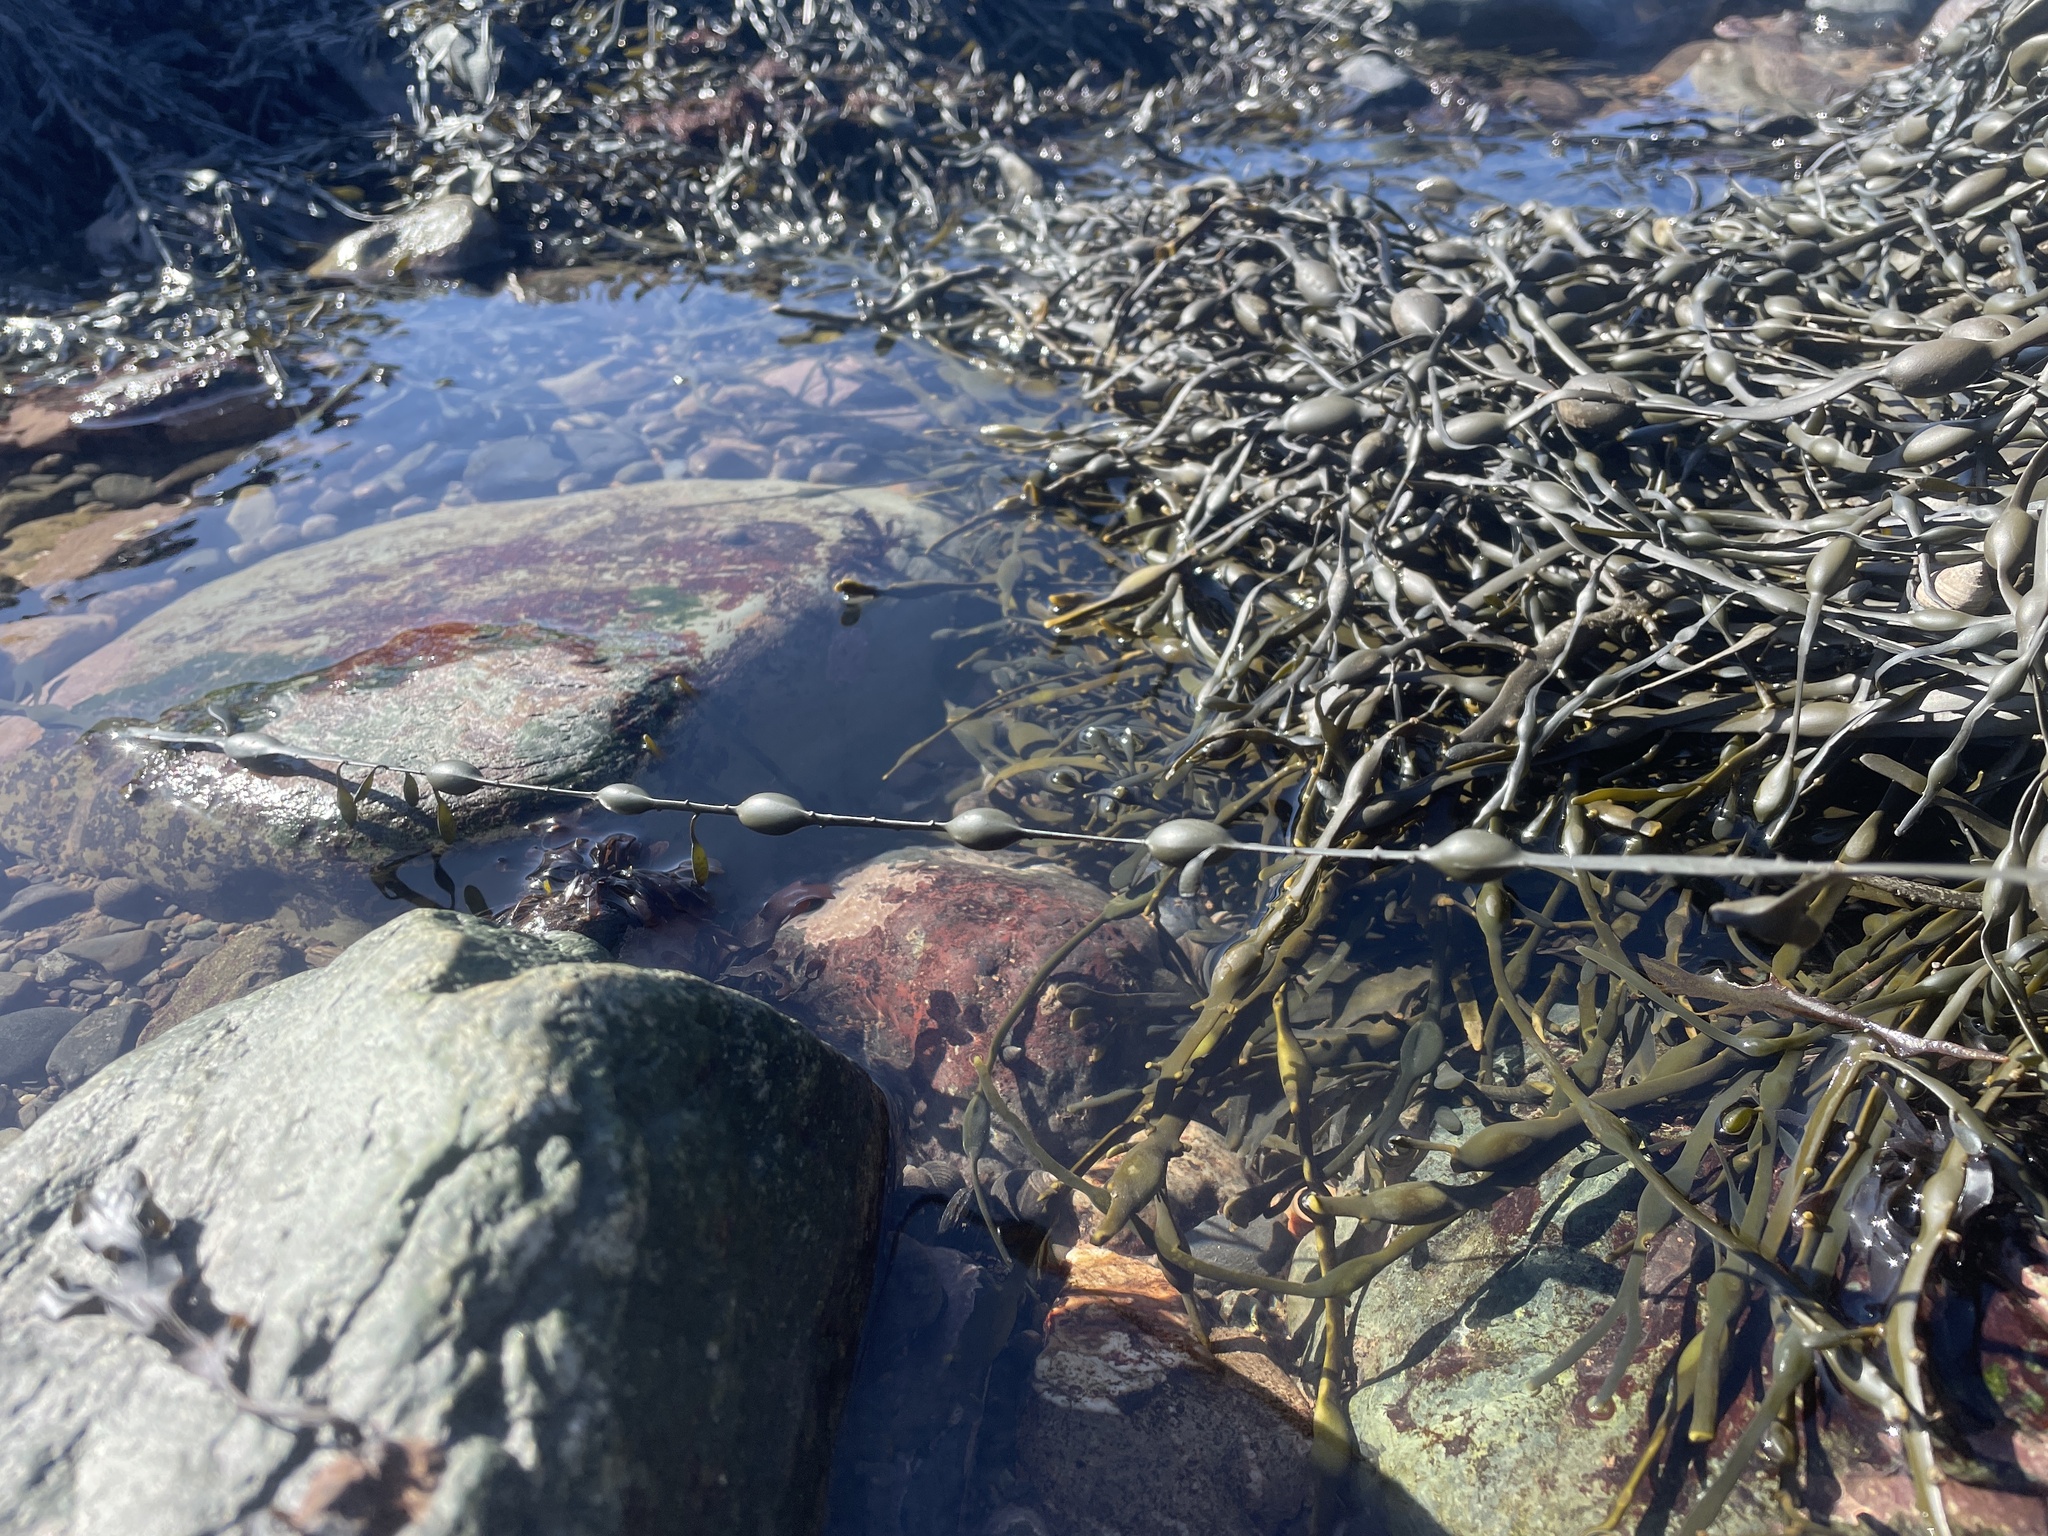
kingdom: Chromista
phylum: Ochrophyta
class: Phaeophyceae
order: Fucales
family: Fucaceae
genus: Ascophyllum
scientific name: Ascophyllum nodosum
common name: Knotted wrack
